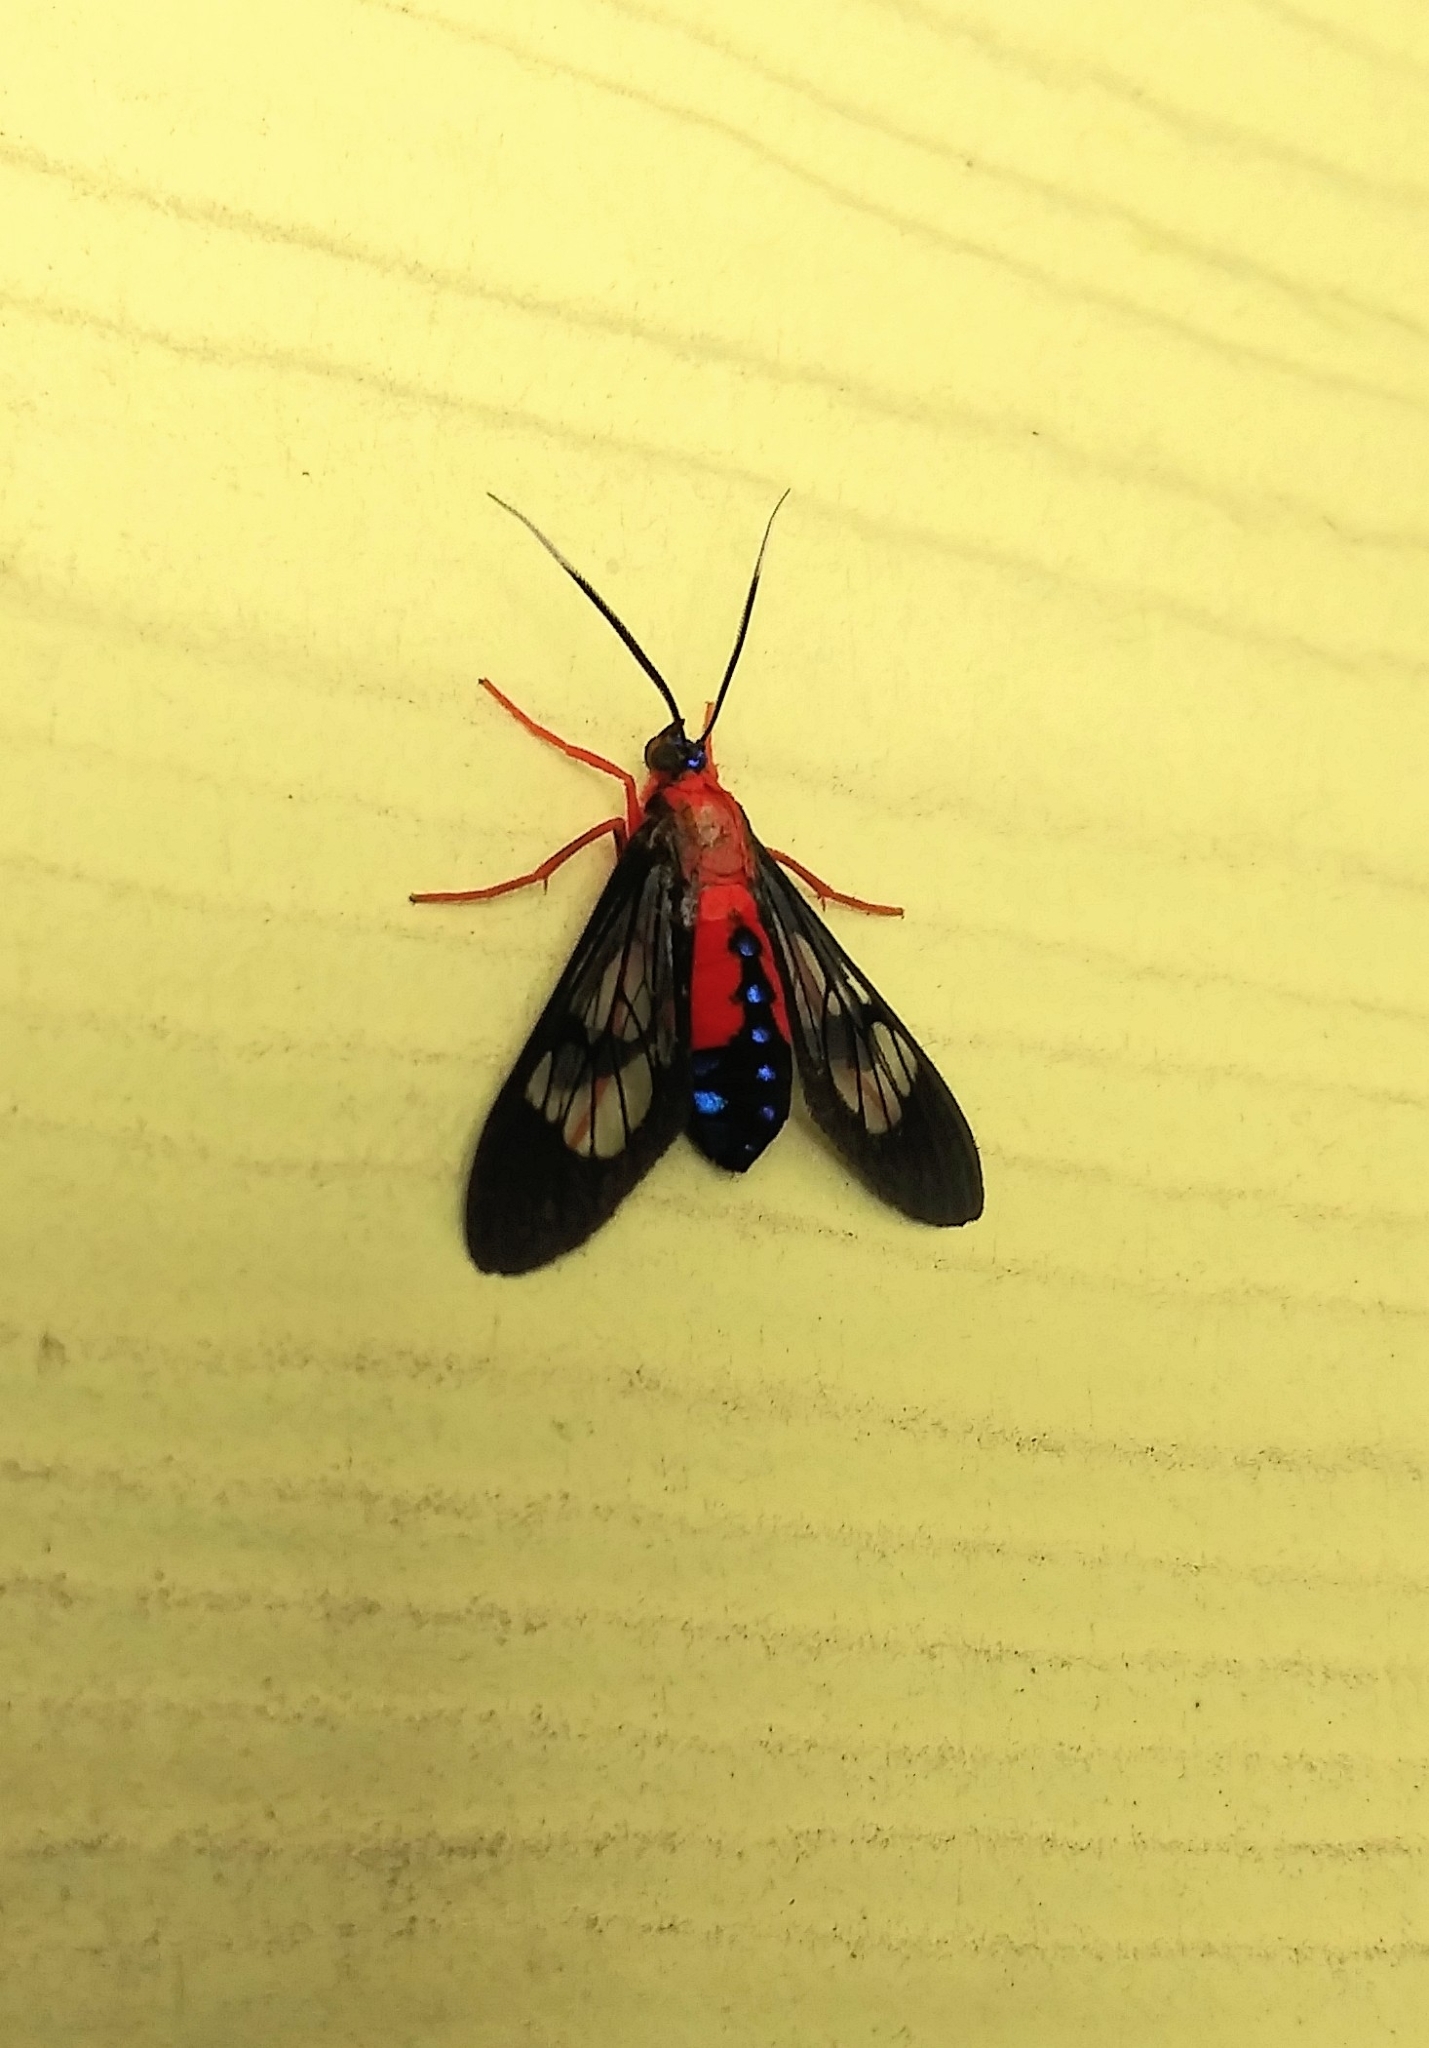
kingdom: Animalia
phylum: Arthropoda
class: Insecta
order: Lepidoptera
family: Erebidae
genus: Cosmosoma
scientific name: Cosmosoma myrodora
